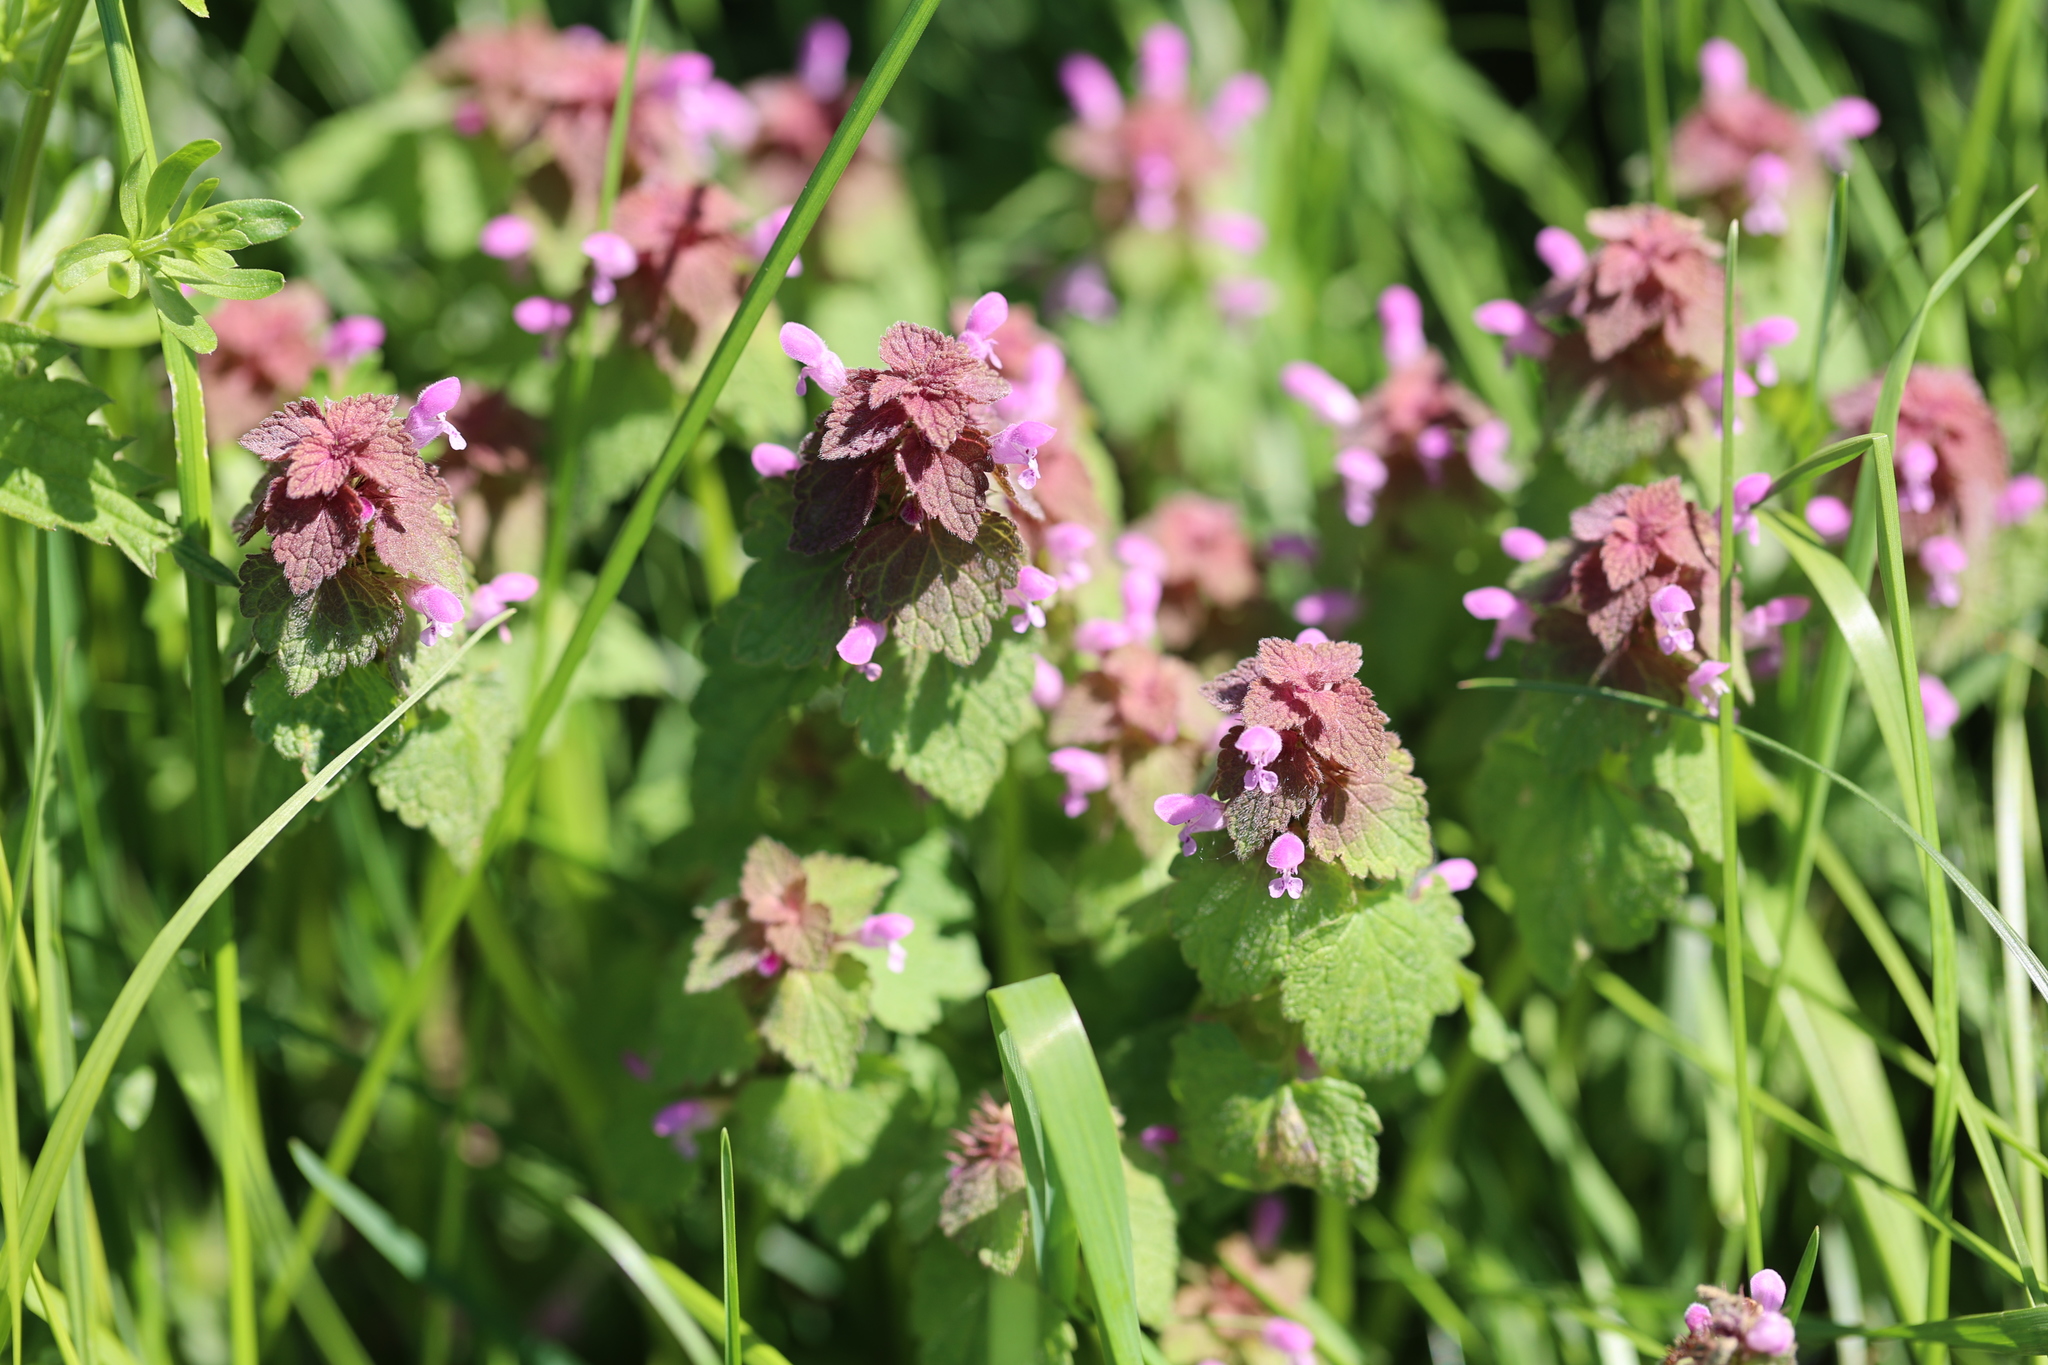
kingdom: Plantae
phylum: Tracheophyta
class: Magnoliopsida
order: Lamiales
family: Lamiaceae
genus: Lamium
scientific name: Lamium purpureum
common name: Red dead-nettle
